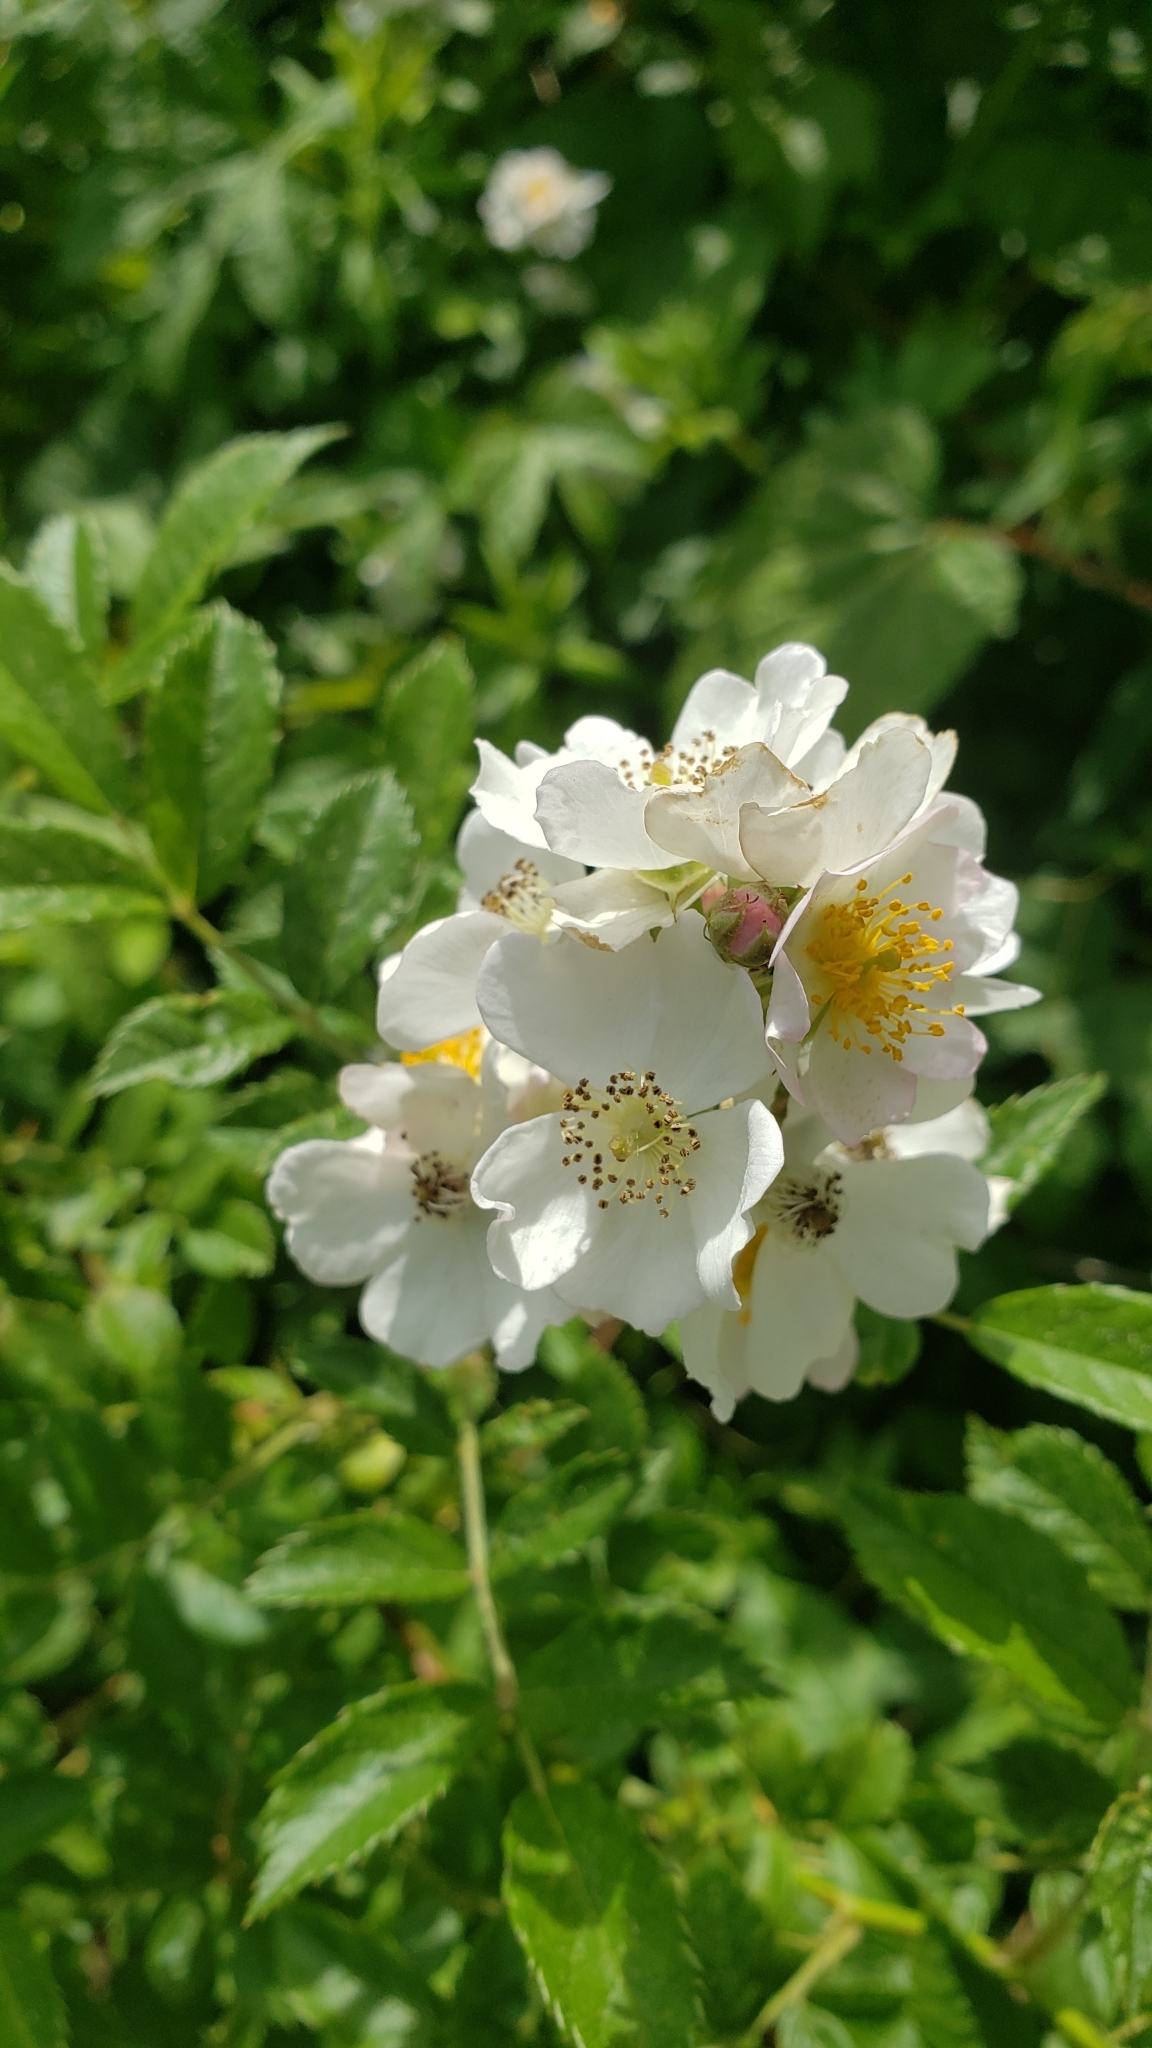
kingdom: Plantae
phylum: Tracheophyta
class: Magnoliopsida
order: Rosales
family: Rosaceae
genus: Rosa
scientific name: Rosa multiflora
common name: Multiflora rose
